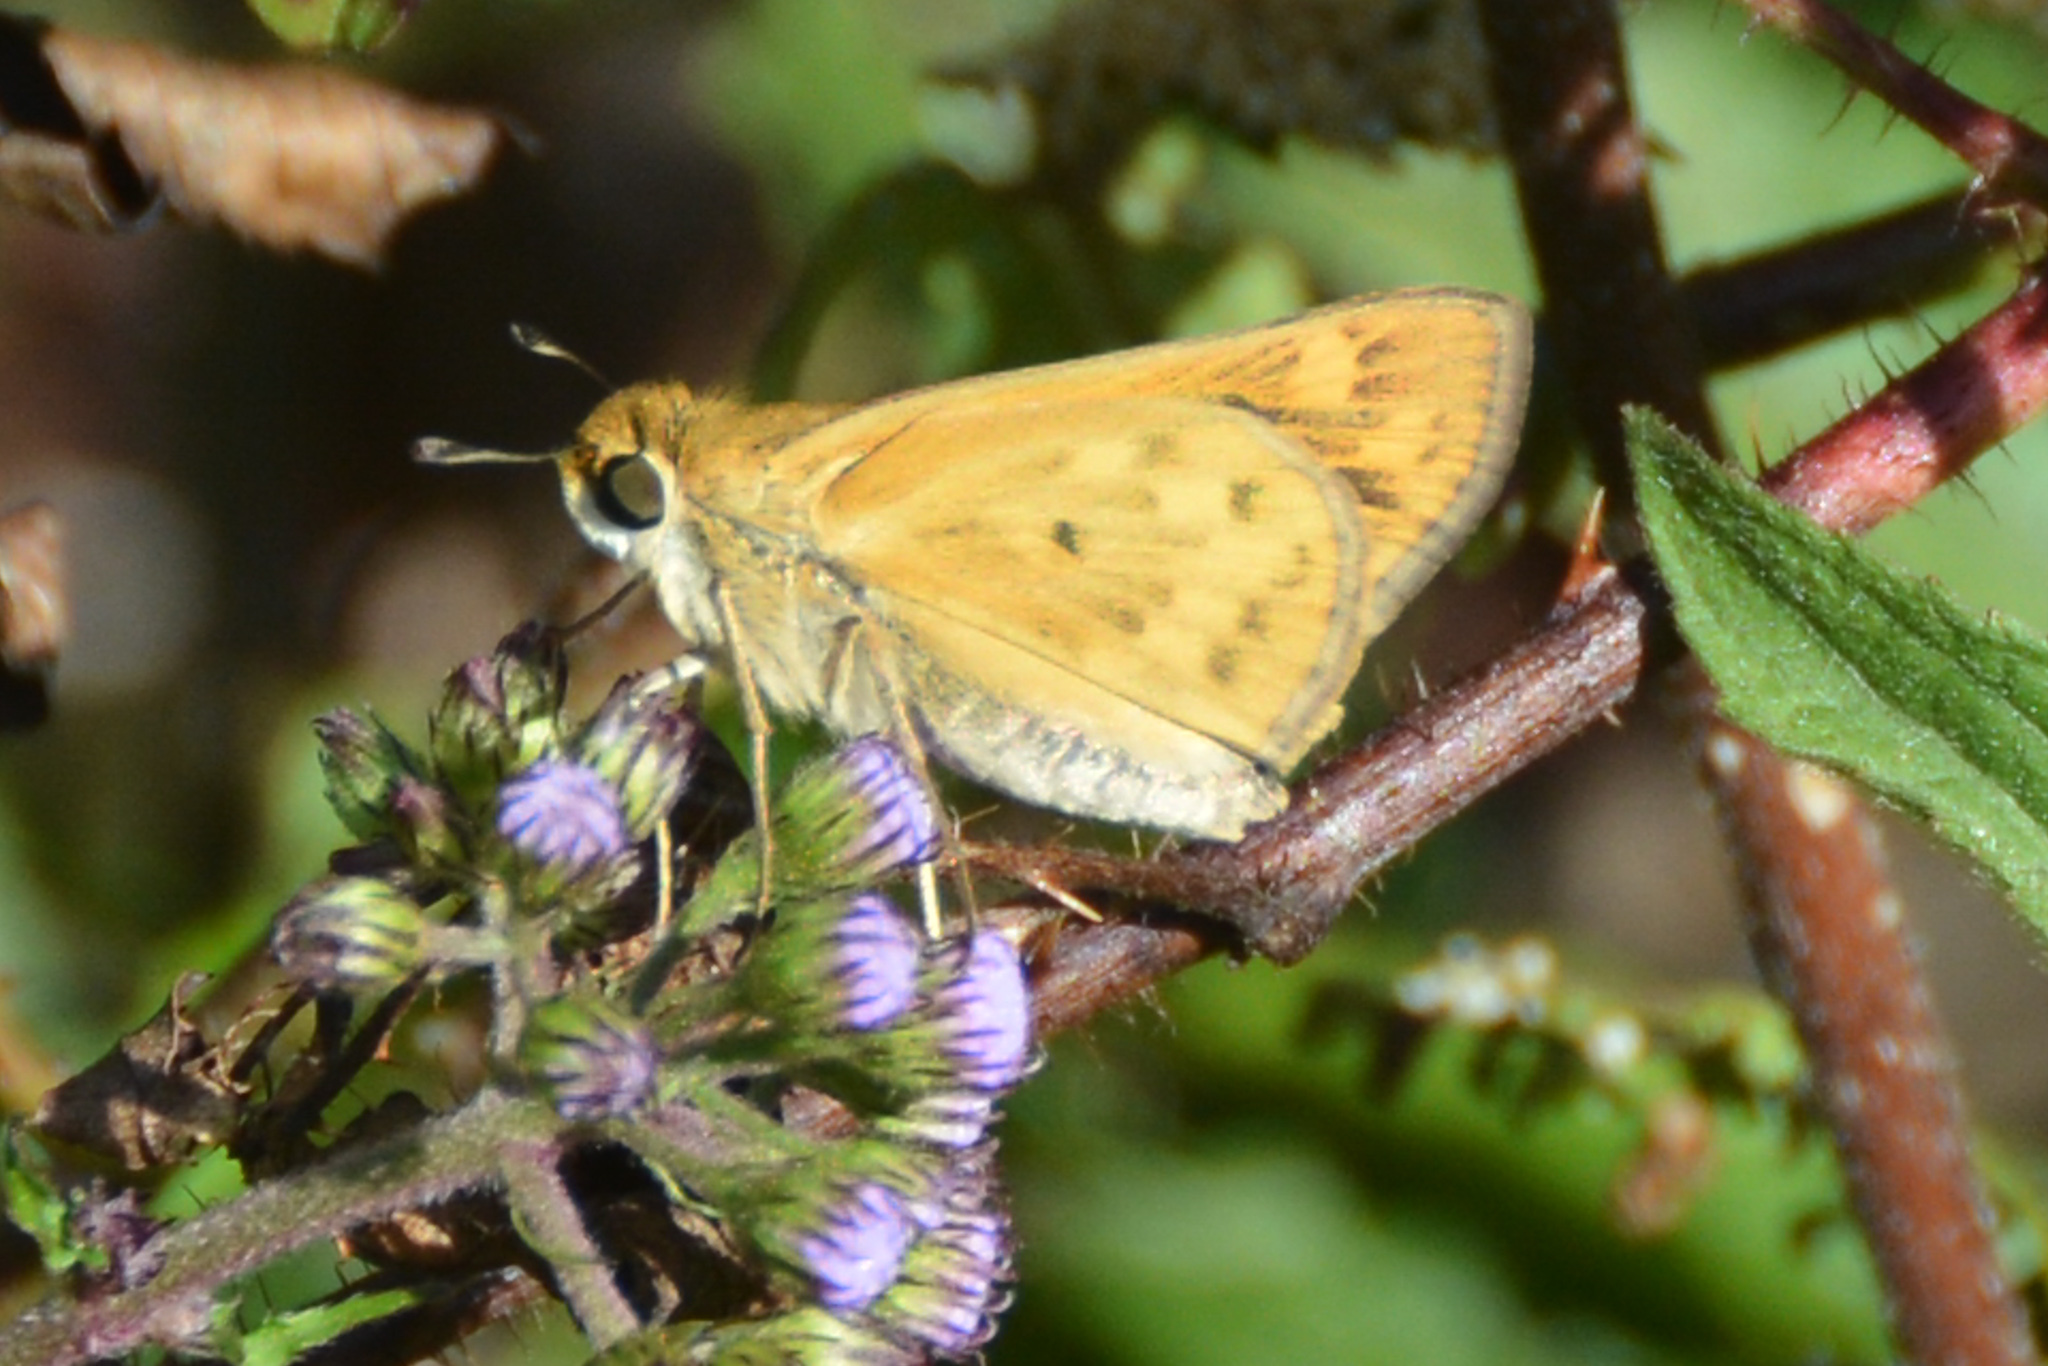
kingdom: Animalia
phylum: Arthropoda
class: Insecta
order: Lepidoptera
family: Hesperiidae
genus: Hylephila
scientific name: Hylephila phyleus
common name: Fiery skipper
